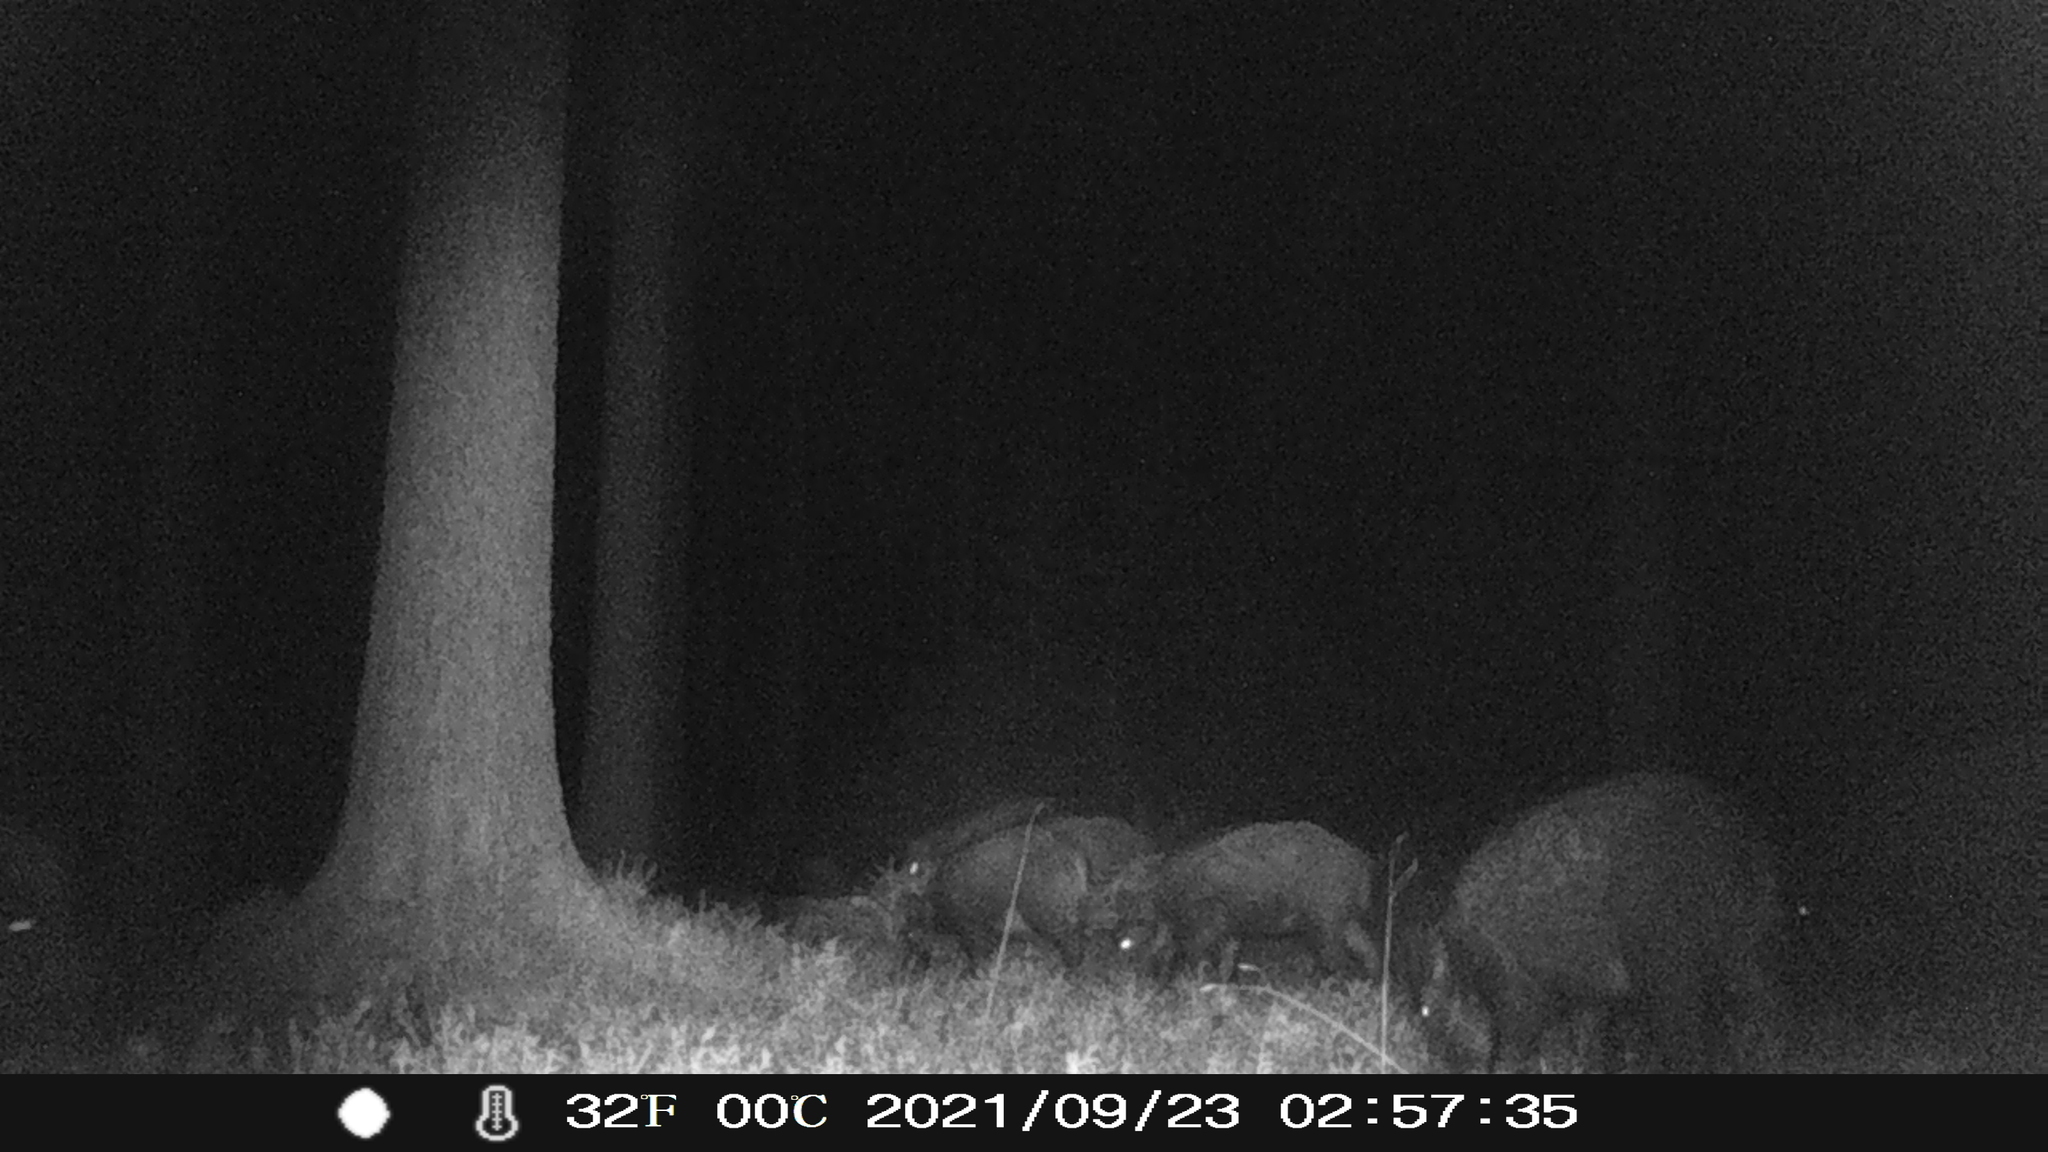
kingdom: Animalia
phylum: Chordata
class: Mammalia
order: Artiodactyla
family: Suidae
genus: Sus
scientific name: Sus scrofa
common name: Wild boar
